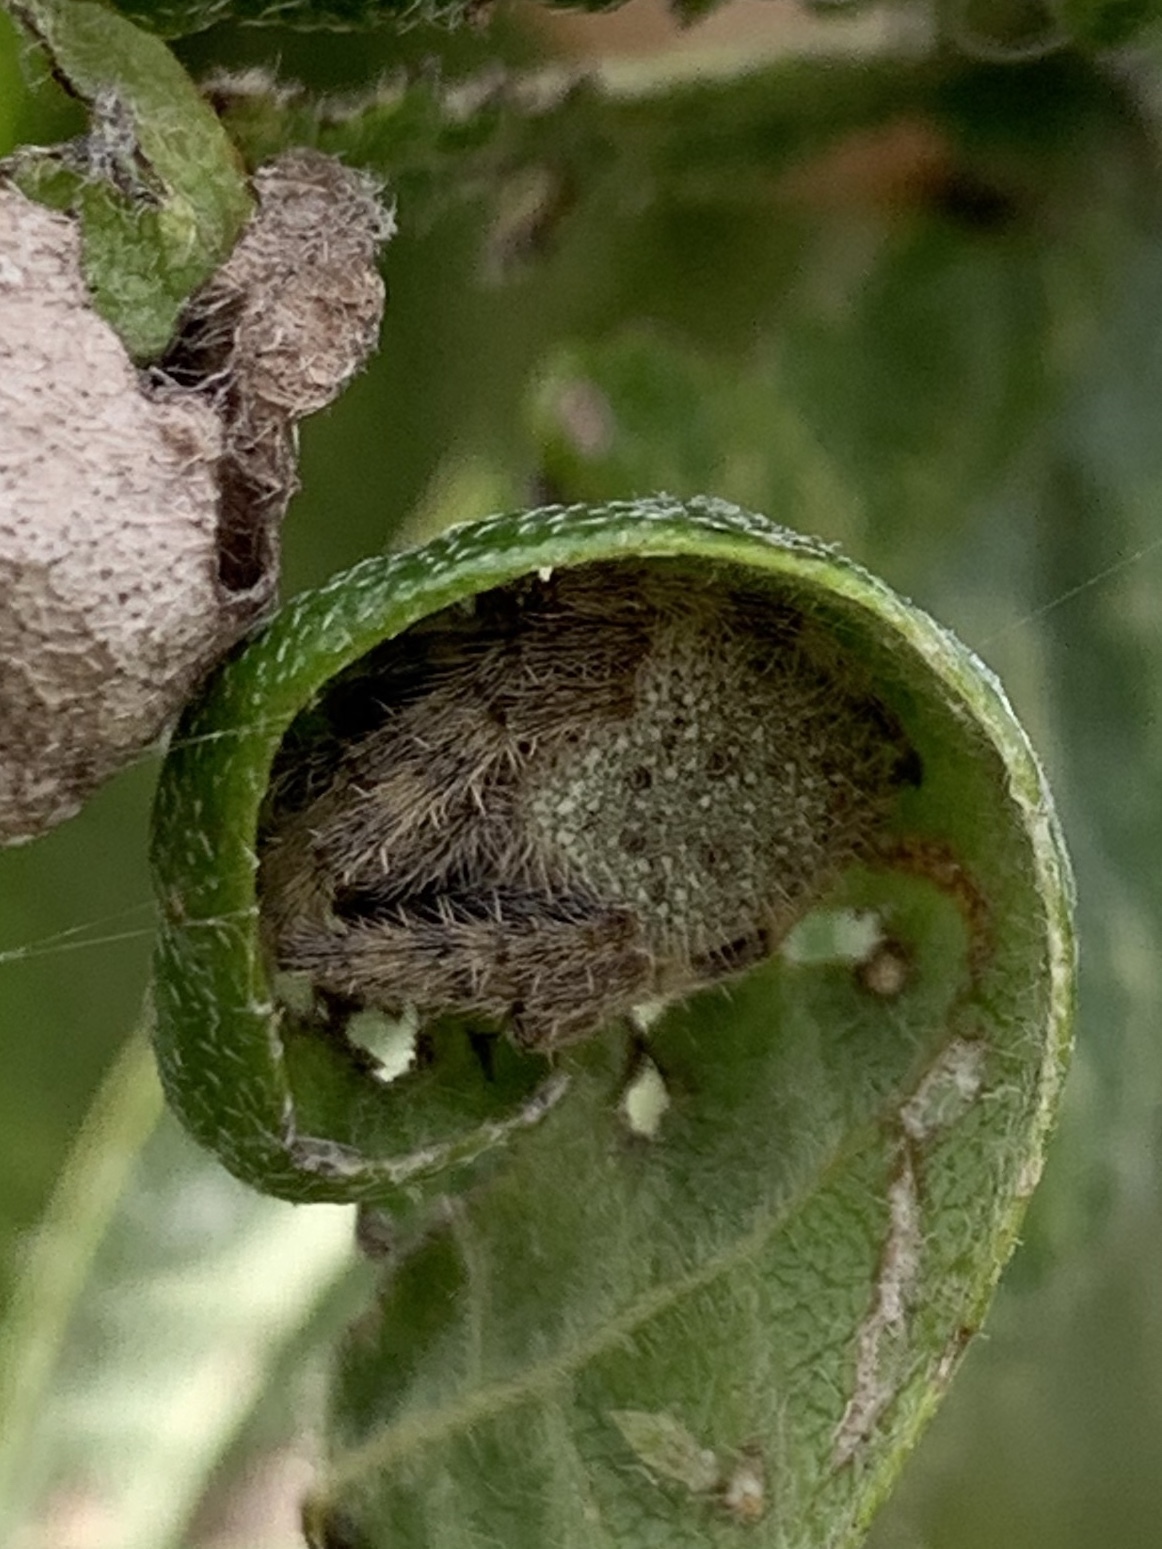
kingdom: Animalia
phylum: Arthropoda
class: Arachnida
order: Araneae
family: Araneidae
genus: Eriophora
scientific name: Eriophora ravilla
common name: Orb weavers
